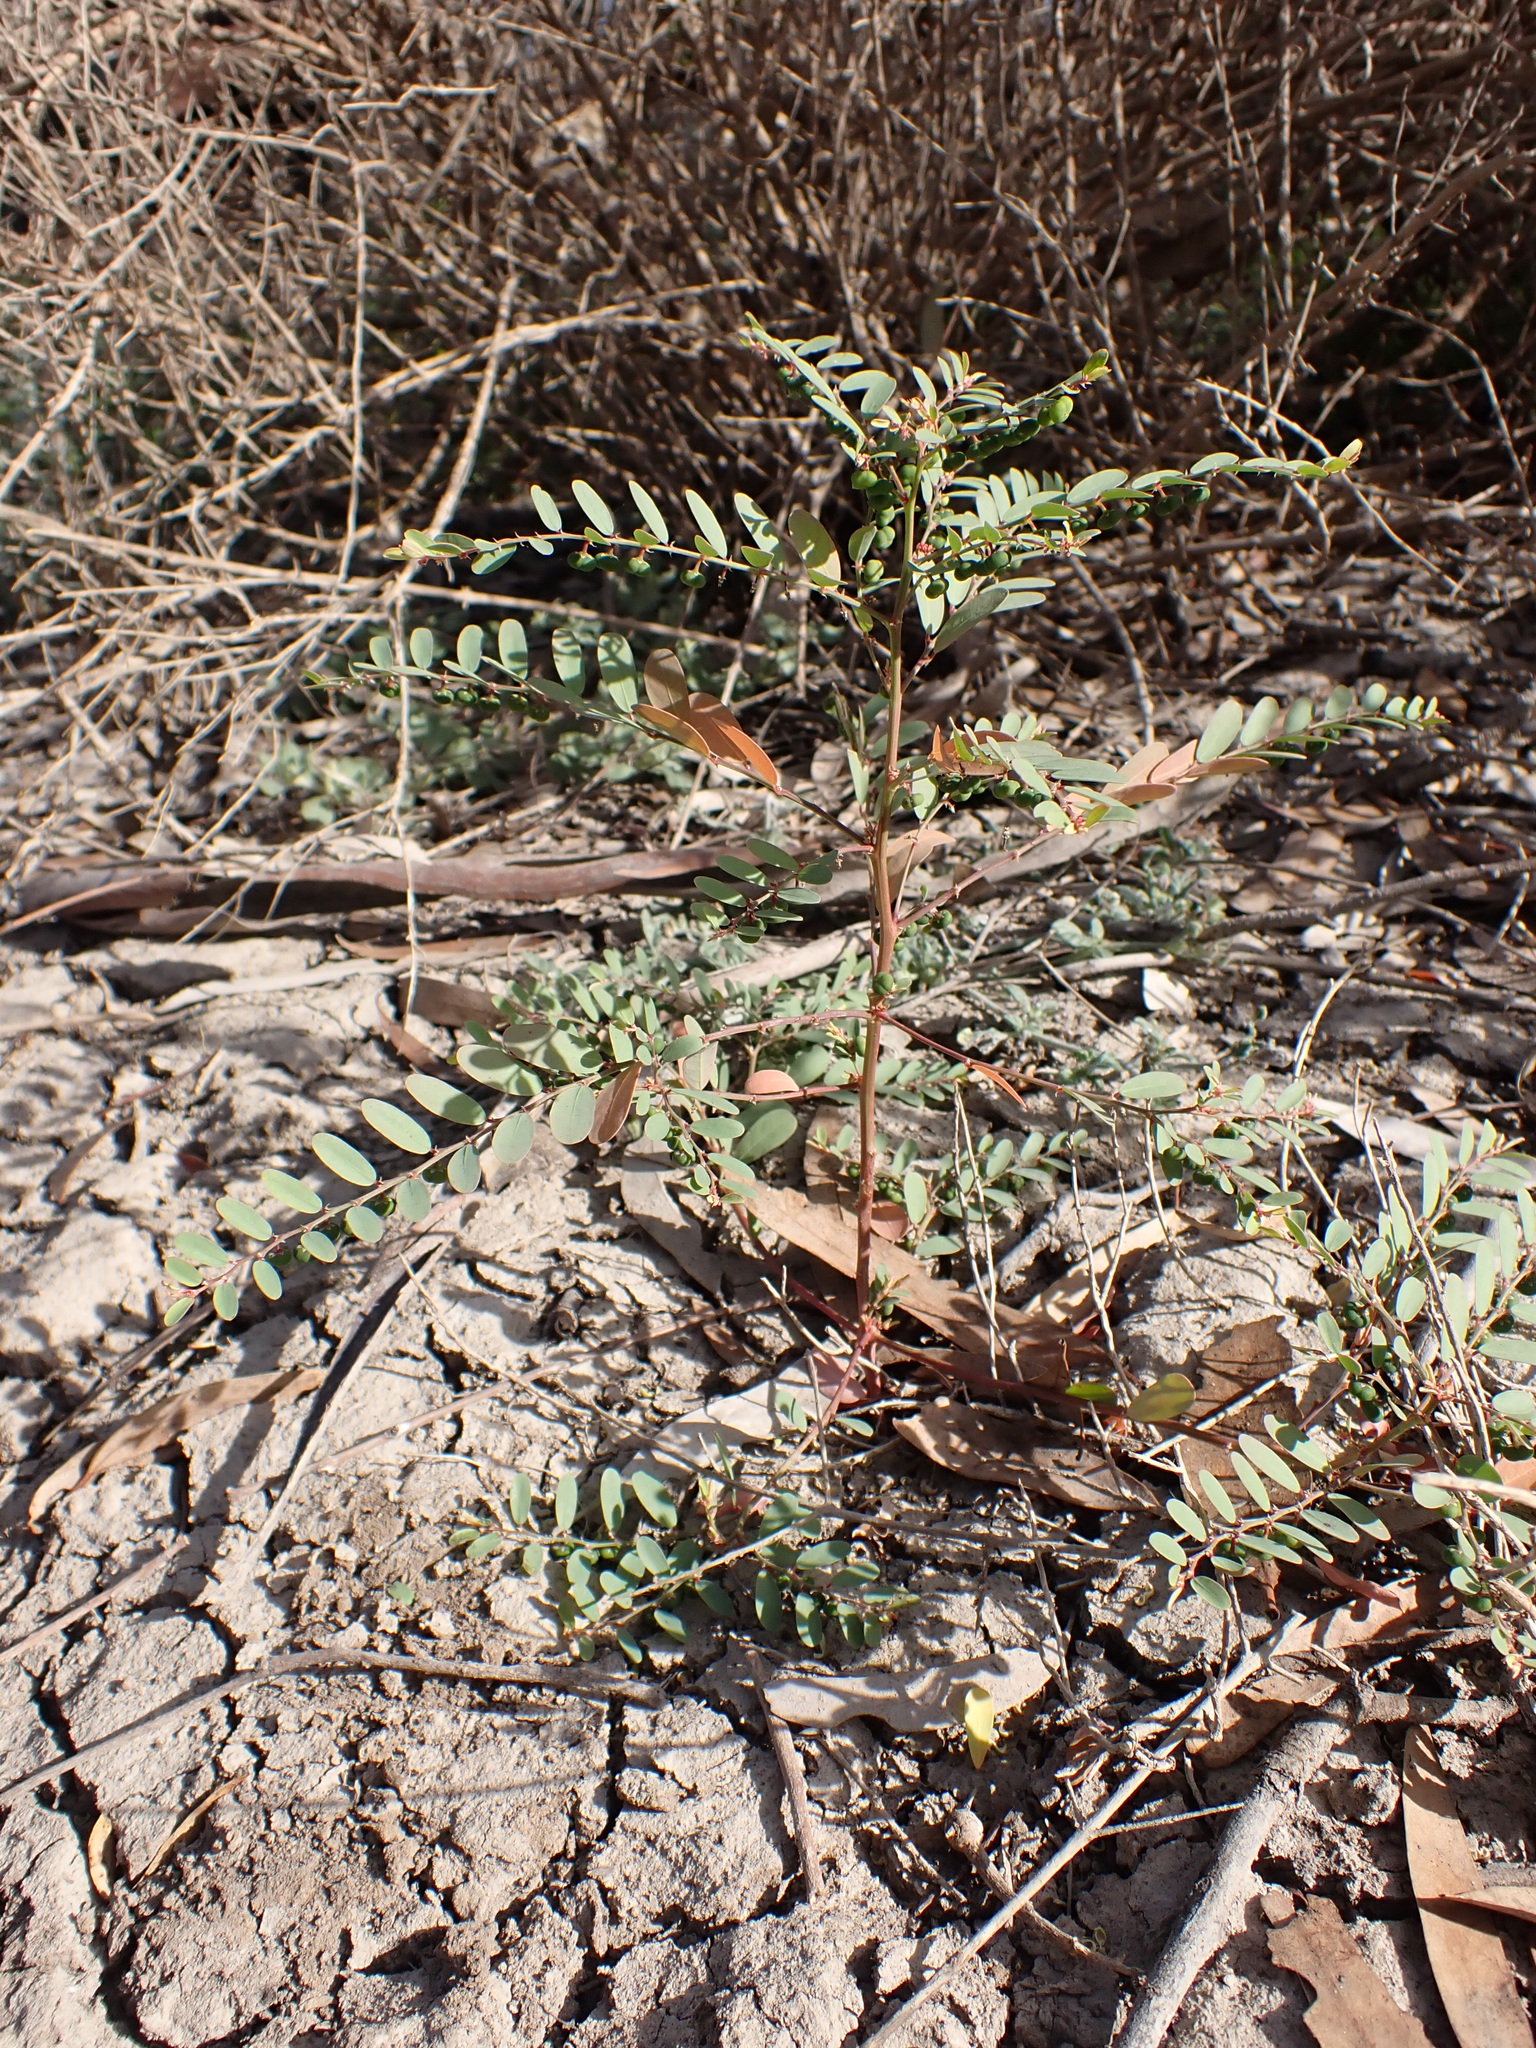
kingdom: Plantae
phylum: Tracheophyta
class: Magnoliopsida
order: Malpighiales
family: Phyllanthaceae
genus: Phyllanthus
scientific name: Phyllanthus lacunarius
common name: Caraweena-clover
